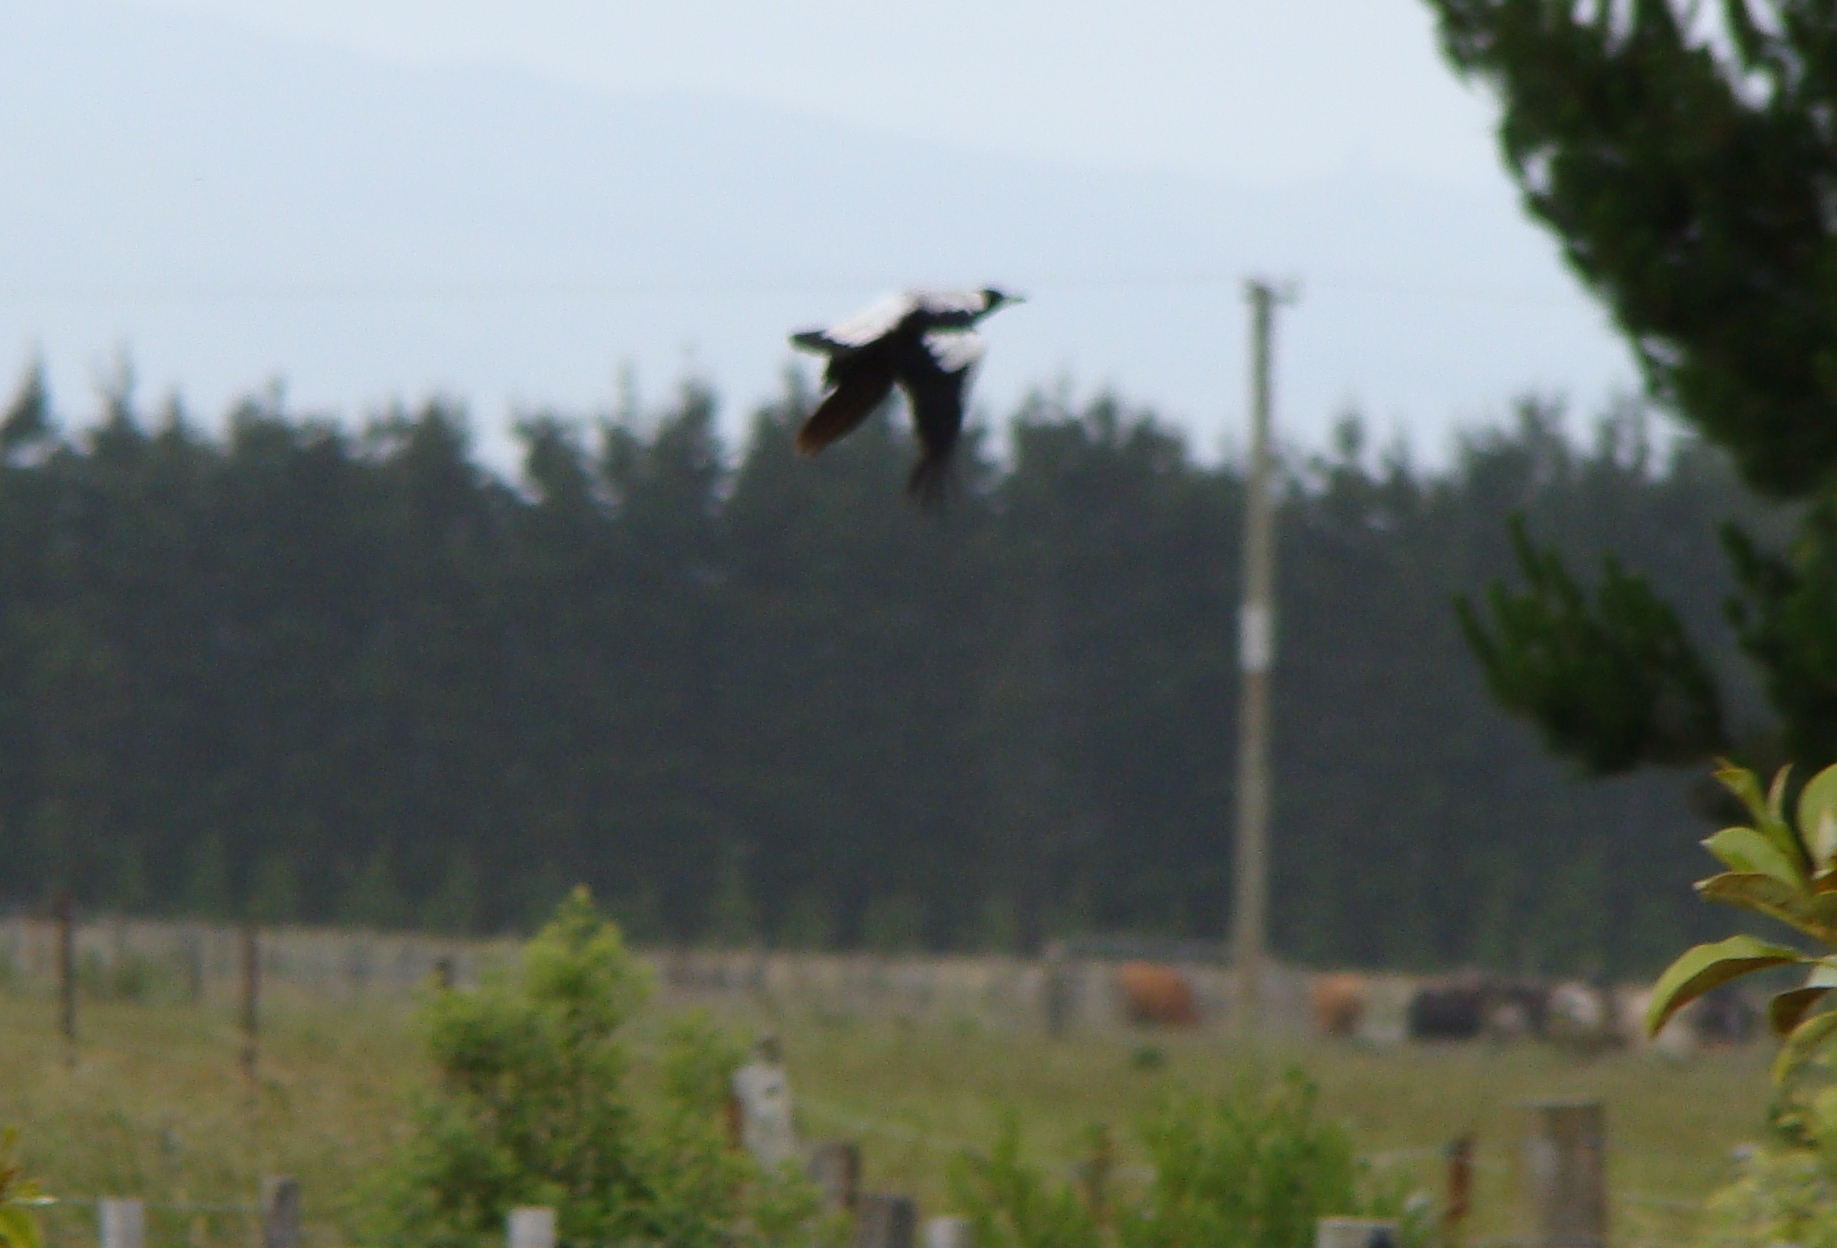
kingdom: Animalia
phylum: Chordata
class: Aves
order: Passeriformes
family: Cracticidae
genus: Gymnorhina
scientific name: Gymnorhina tibicen
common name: Australian magpie
